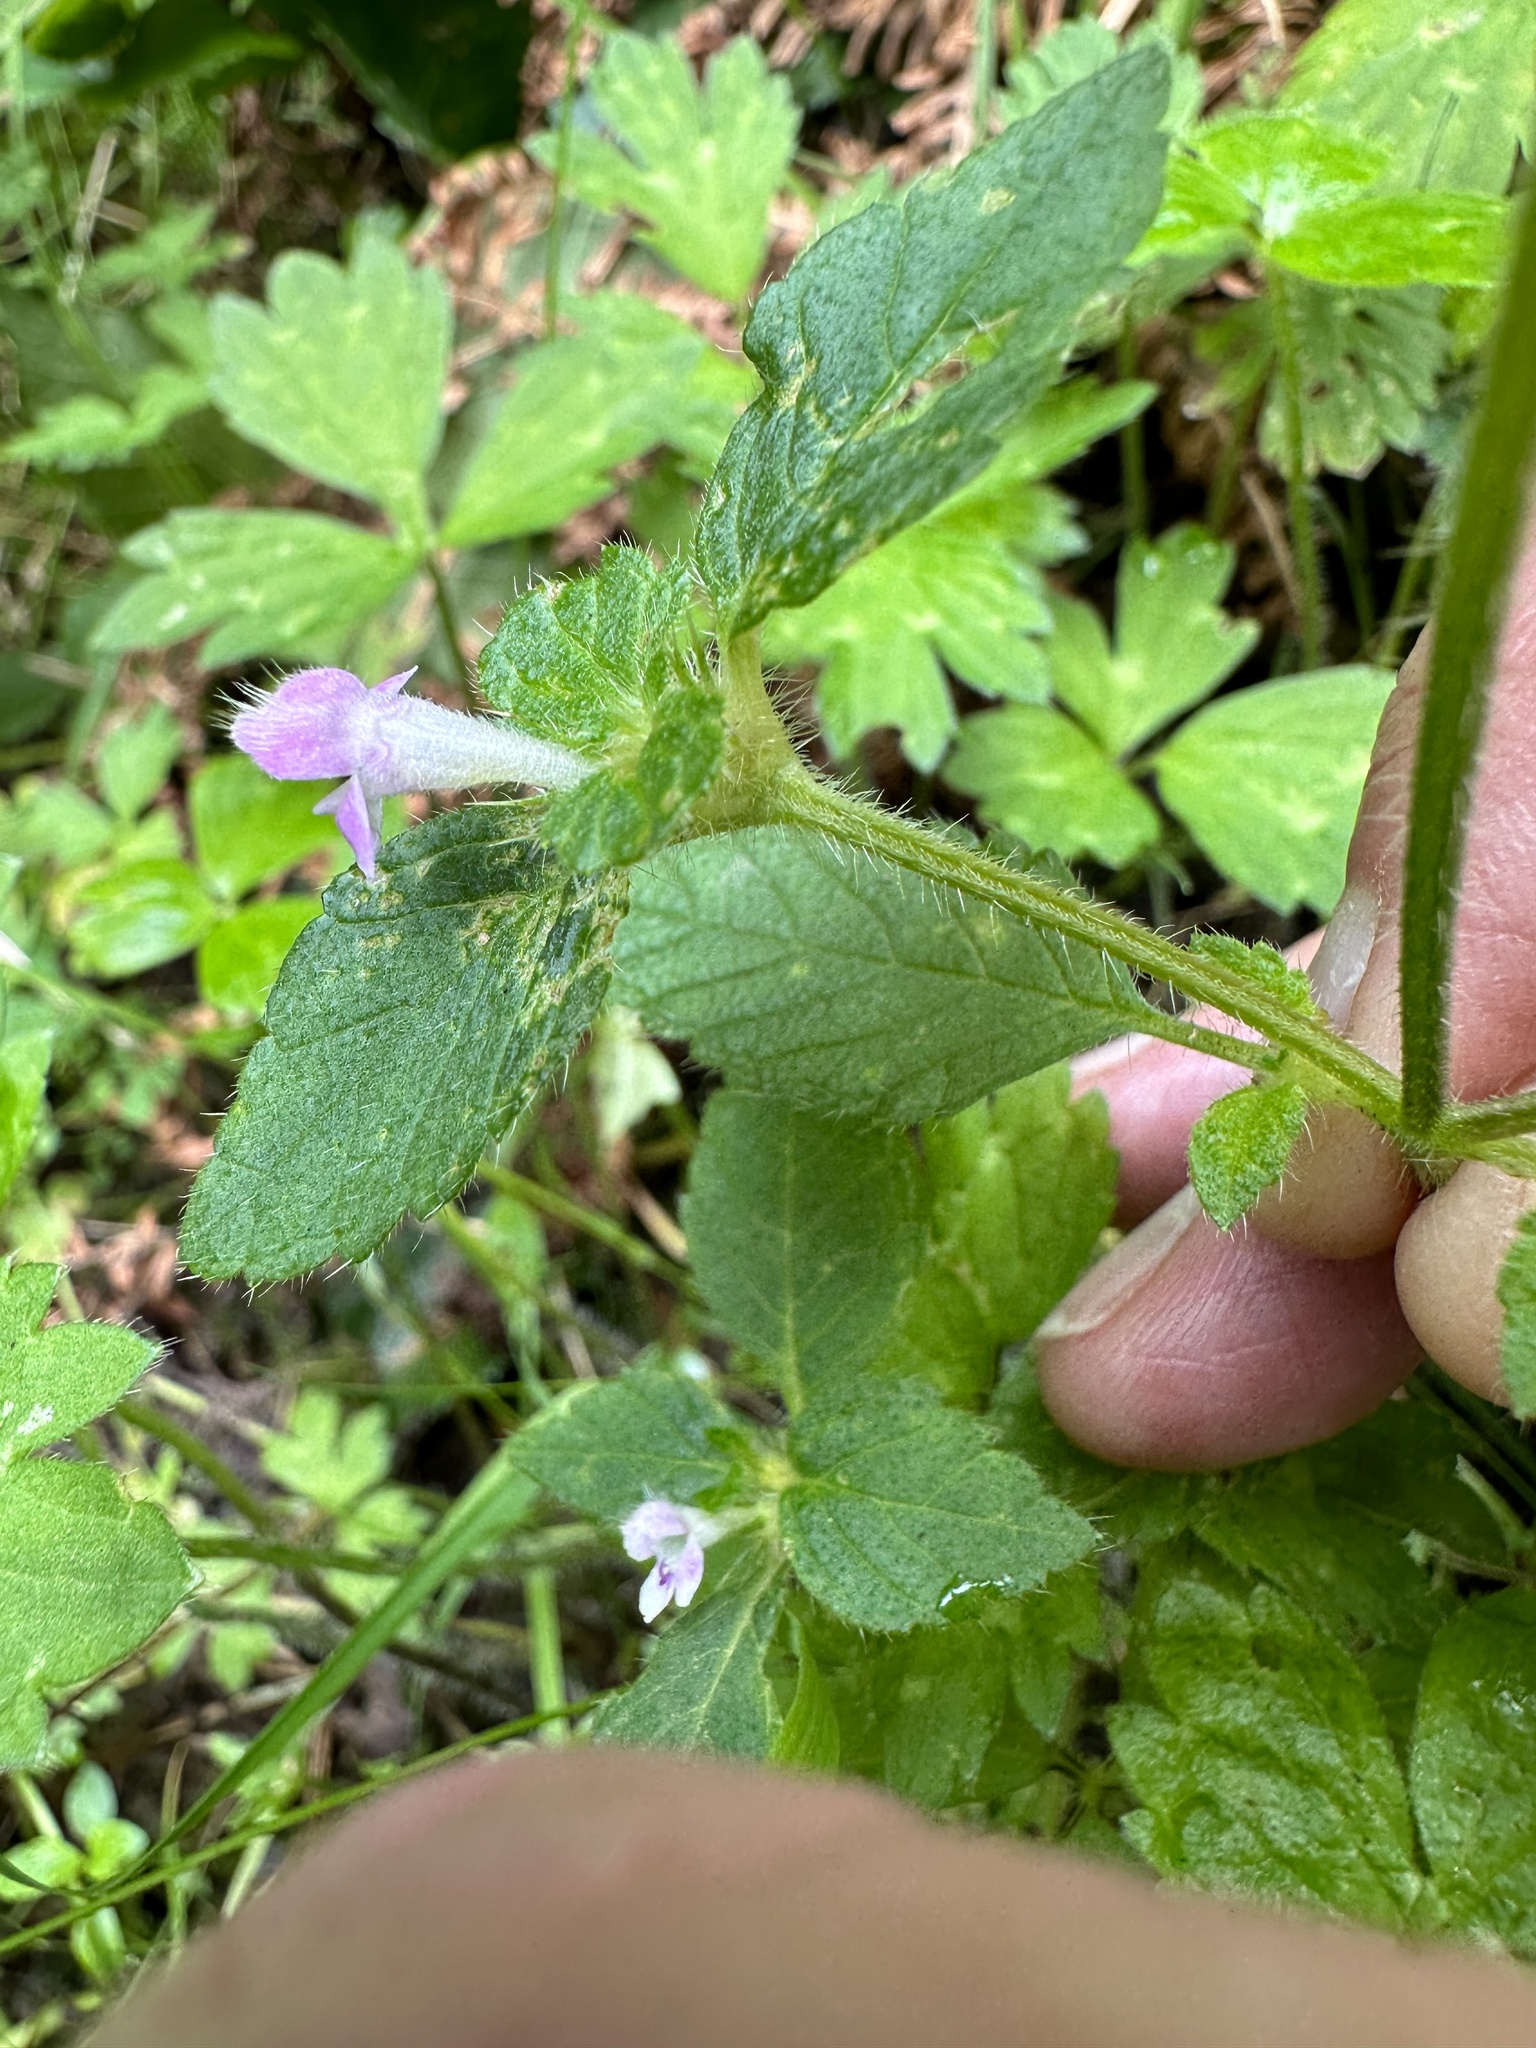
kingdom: Plantae
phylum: Tracheophyta
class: Magnoliopsida
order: Lamiales
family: Lamiaceae
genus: Galeopsis
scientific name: Galeopsis tetrahit
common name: Common hemp-nettle
